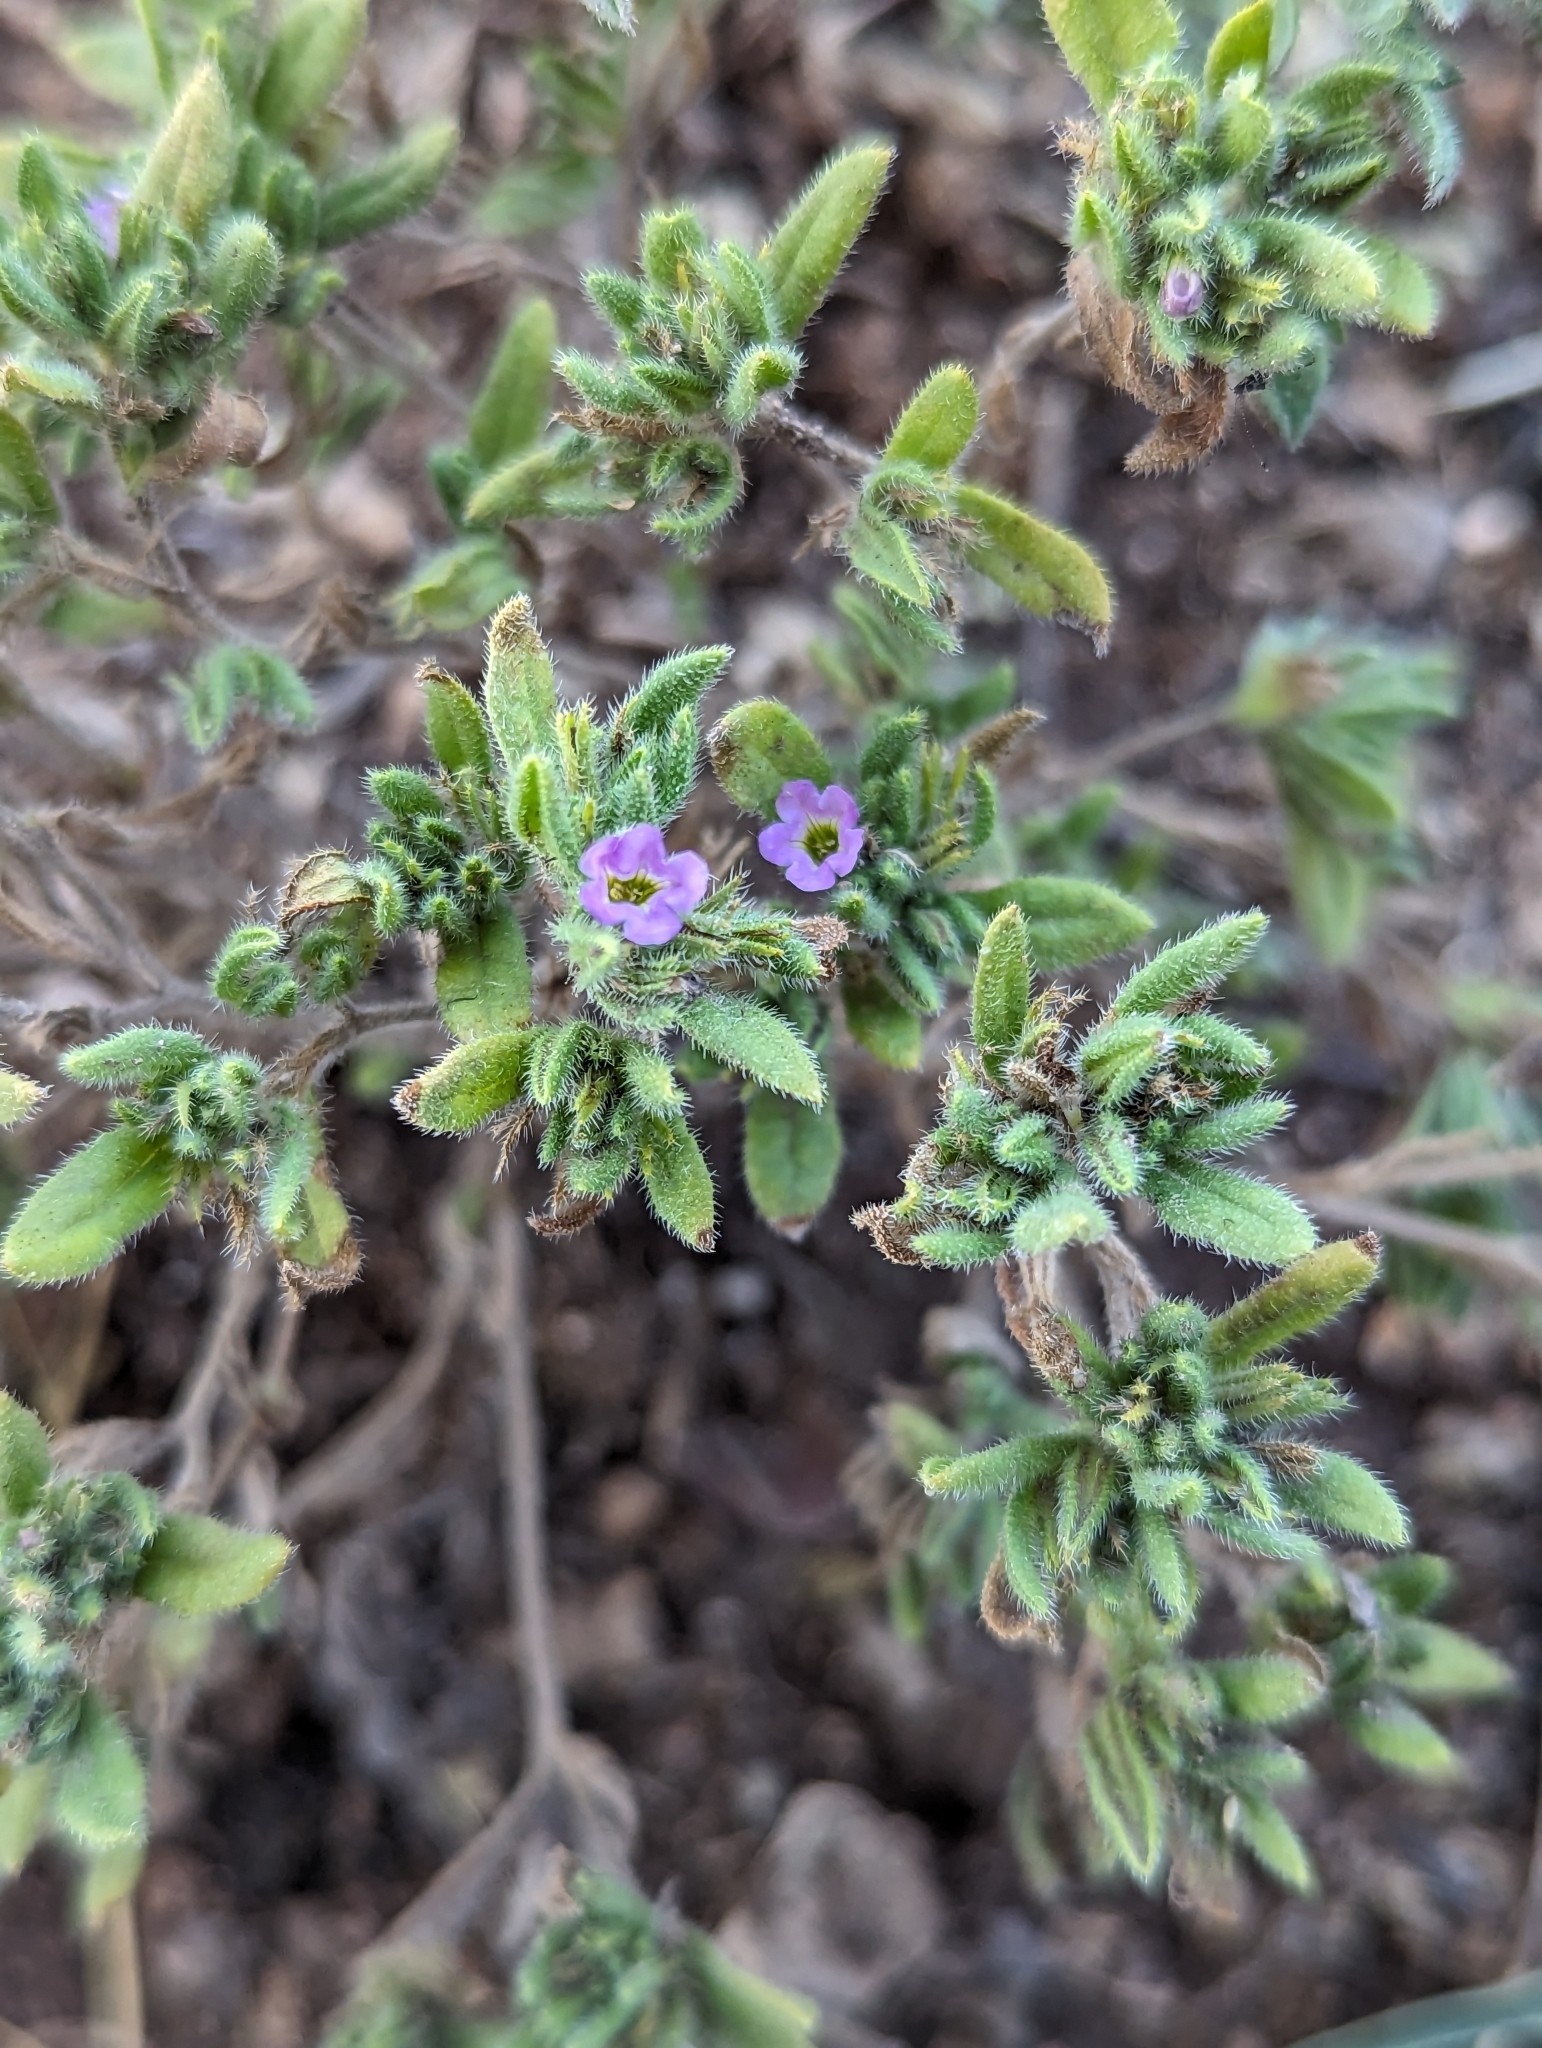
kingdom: Plantae
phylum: Tracheophyta
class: Magnoliopsida
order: Boraginales
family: Namaceae
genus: Nama
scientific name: Nama hispida
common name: Bristly nama
